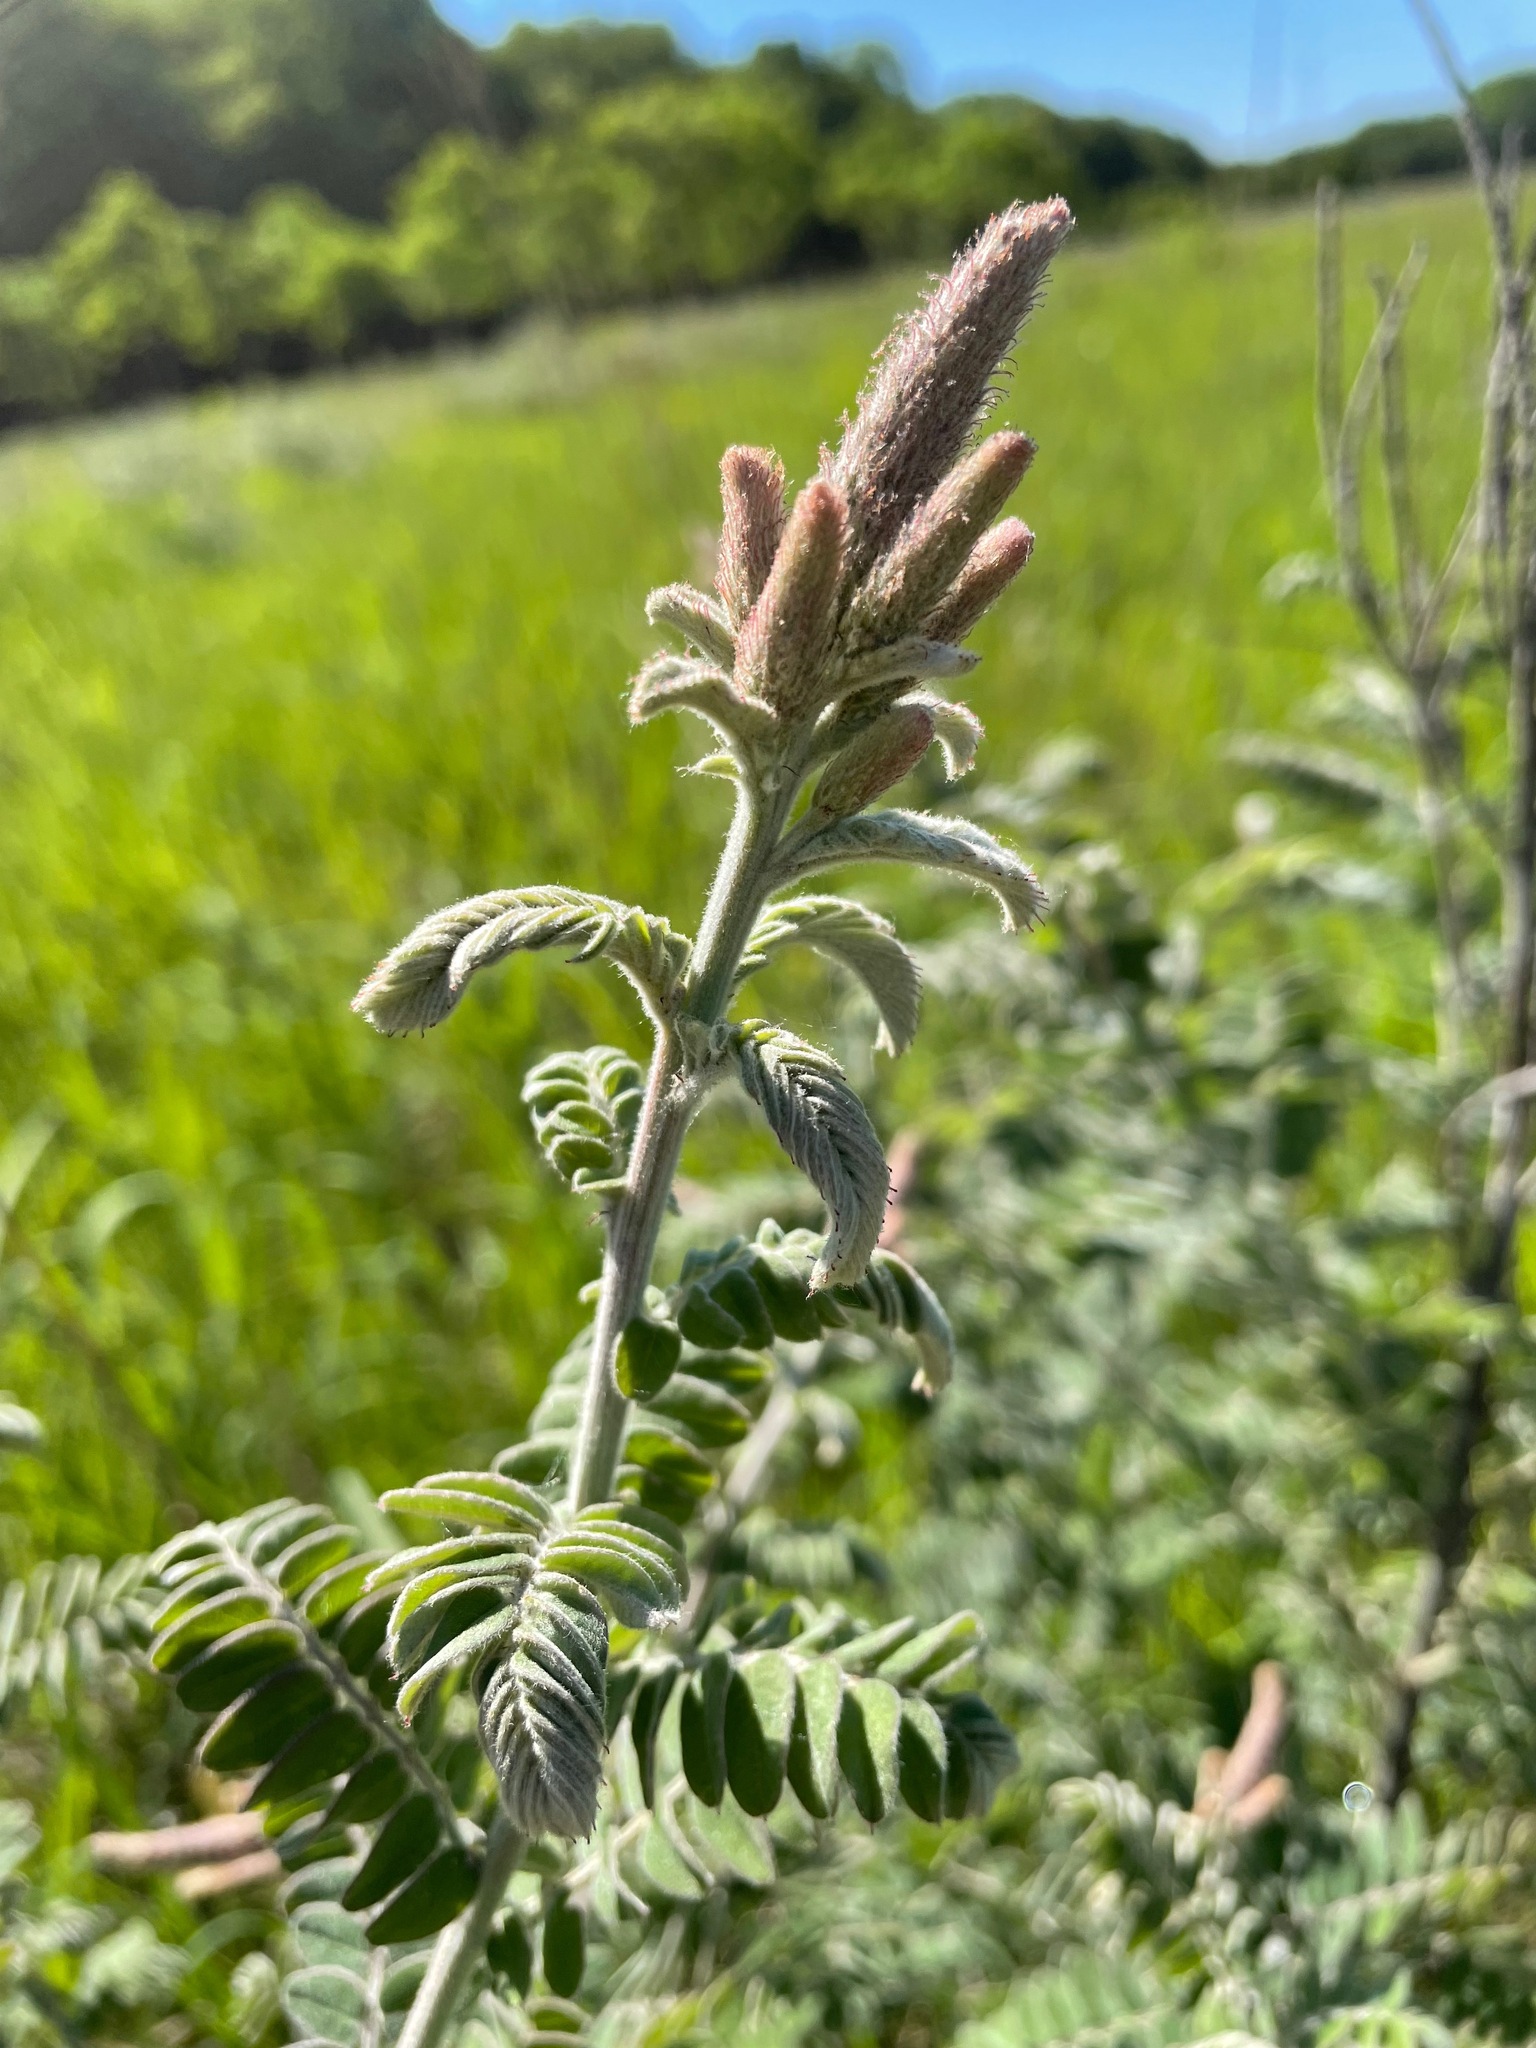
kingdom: Plantae
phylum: Tracheophyta
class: Magnoliopsida
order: Fabales
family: Fabaceae
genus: Amorpha
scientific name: Amorpha canescens
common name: Leadplant
